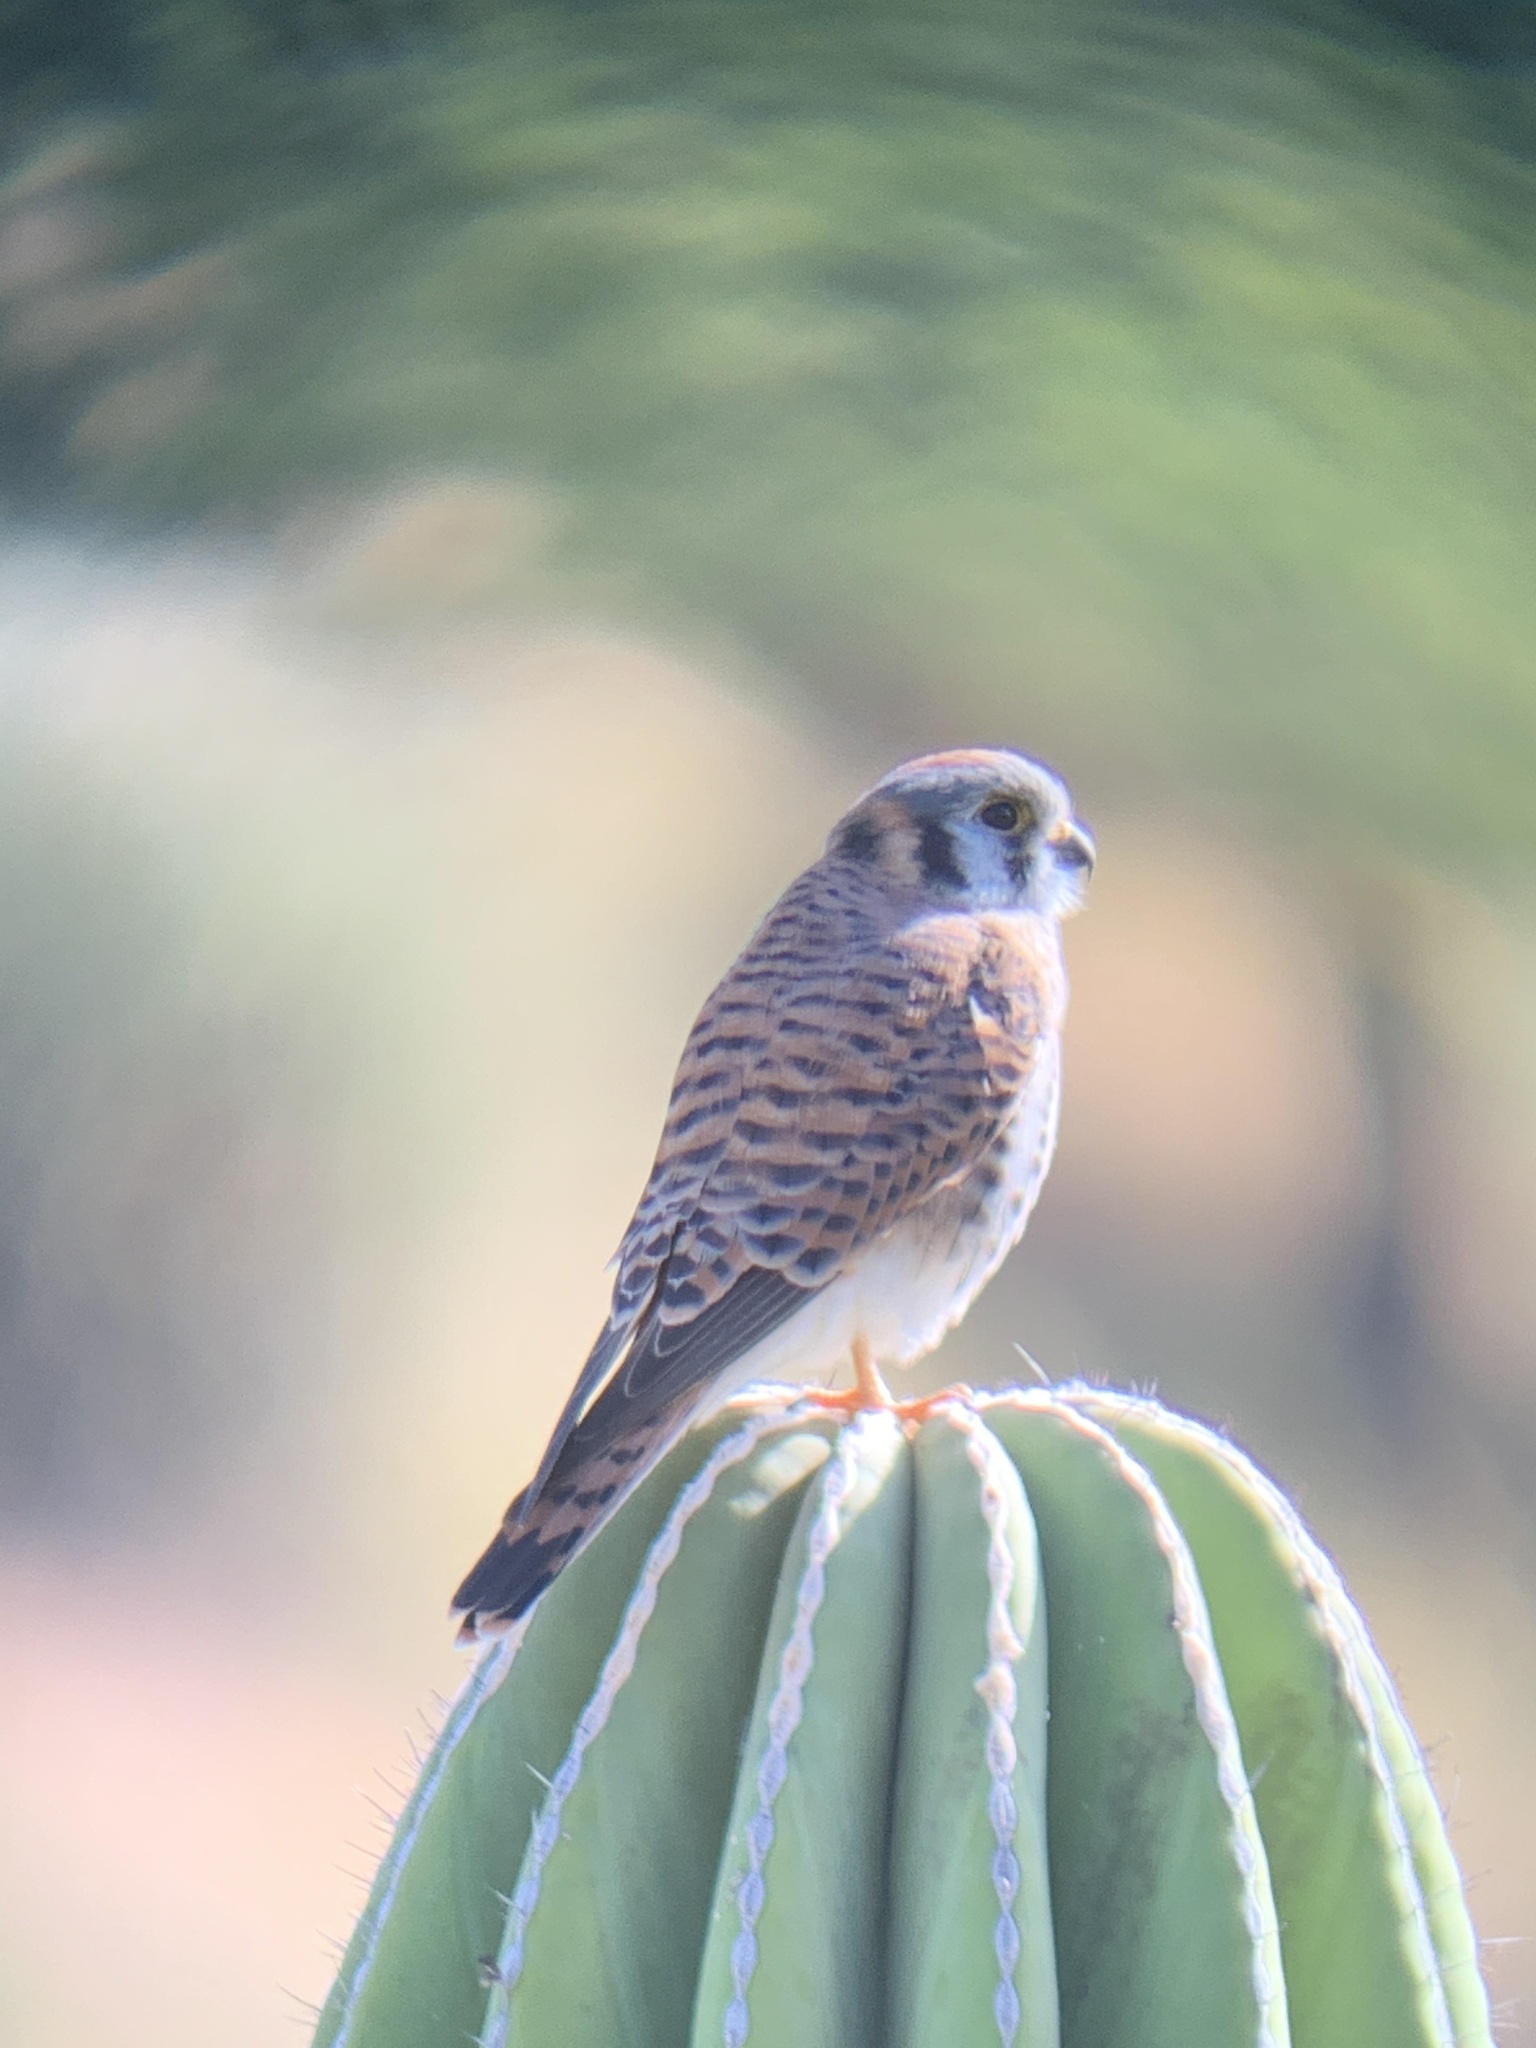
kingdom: Animalia
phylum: Chordata
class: Aves
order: Falconiformes
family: Falconidae
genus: Falco
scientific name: Falco sparverius
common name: American kestrel
